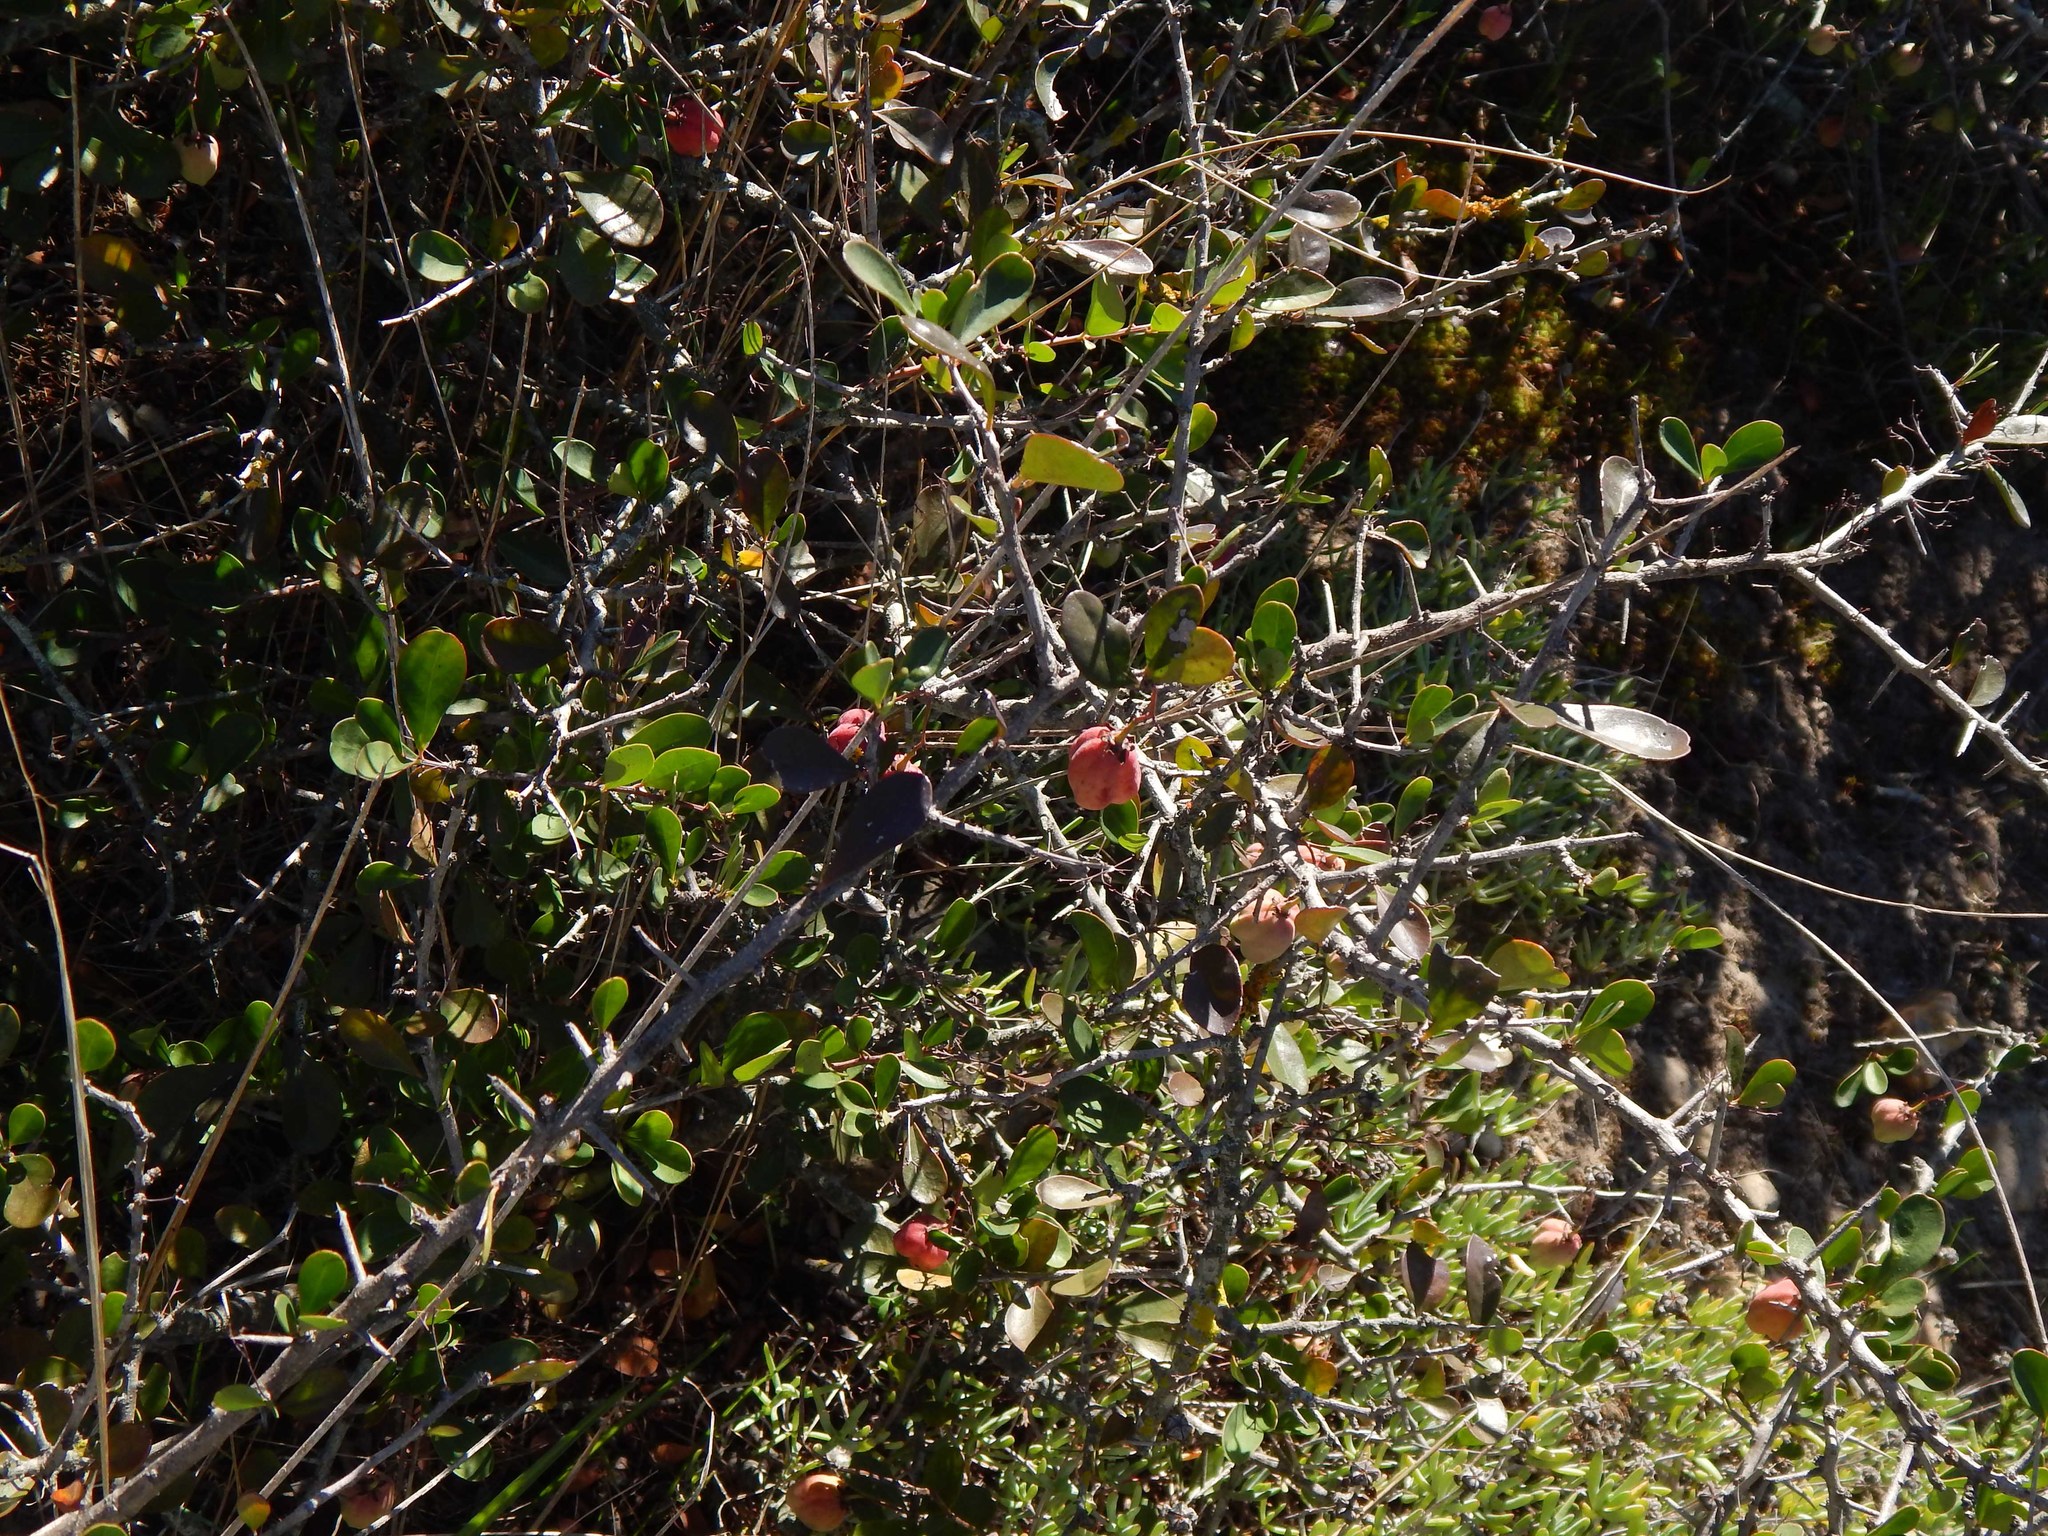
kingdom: Plantae
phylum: Tracheophyta
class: Magnoliopsida
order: Celastrales
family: Celastraceae
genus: Putterlickia
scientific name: Putterlickia pyracantha
